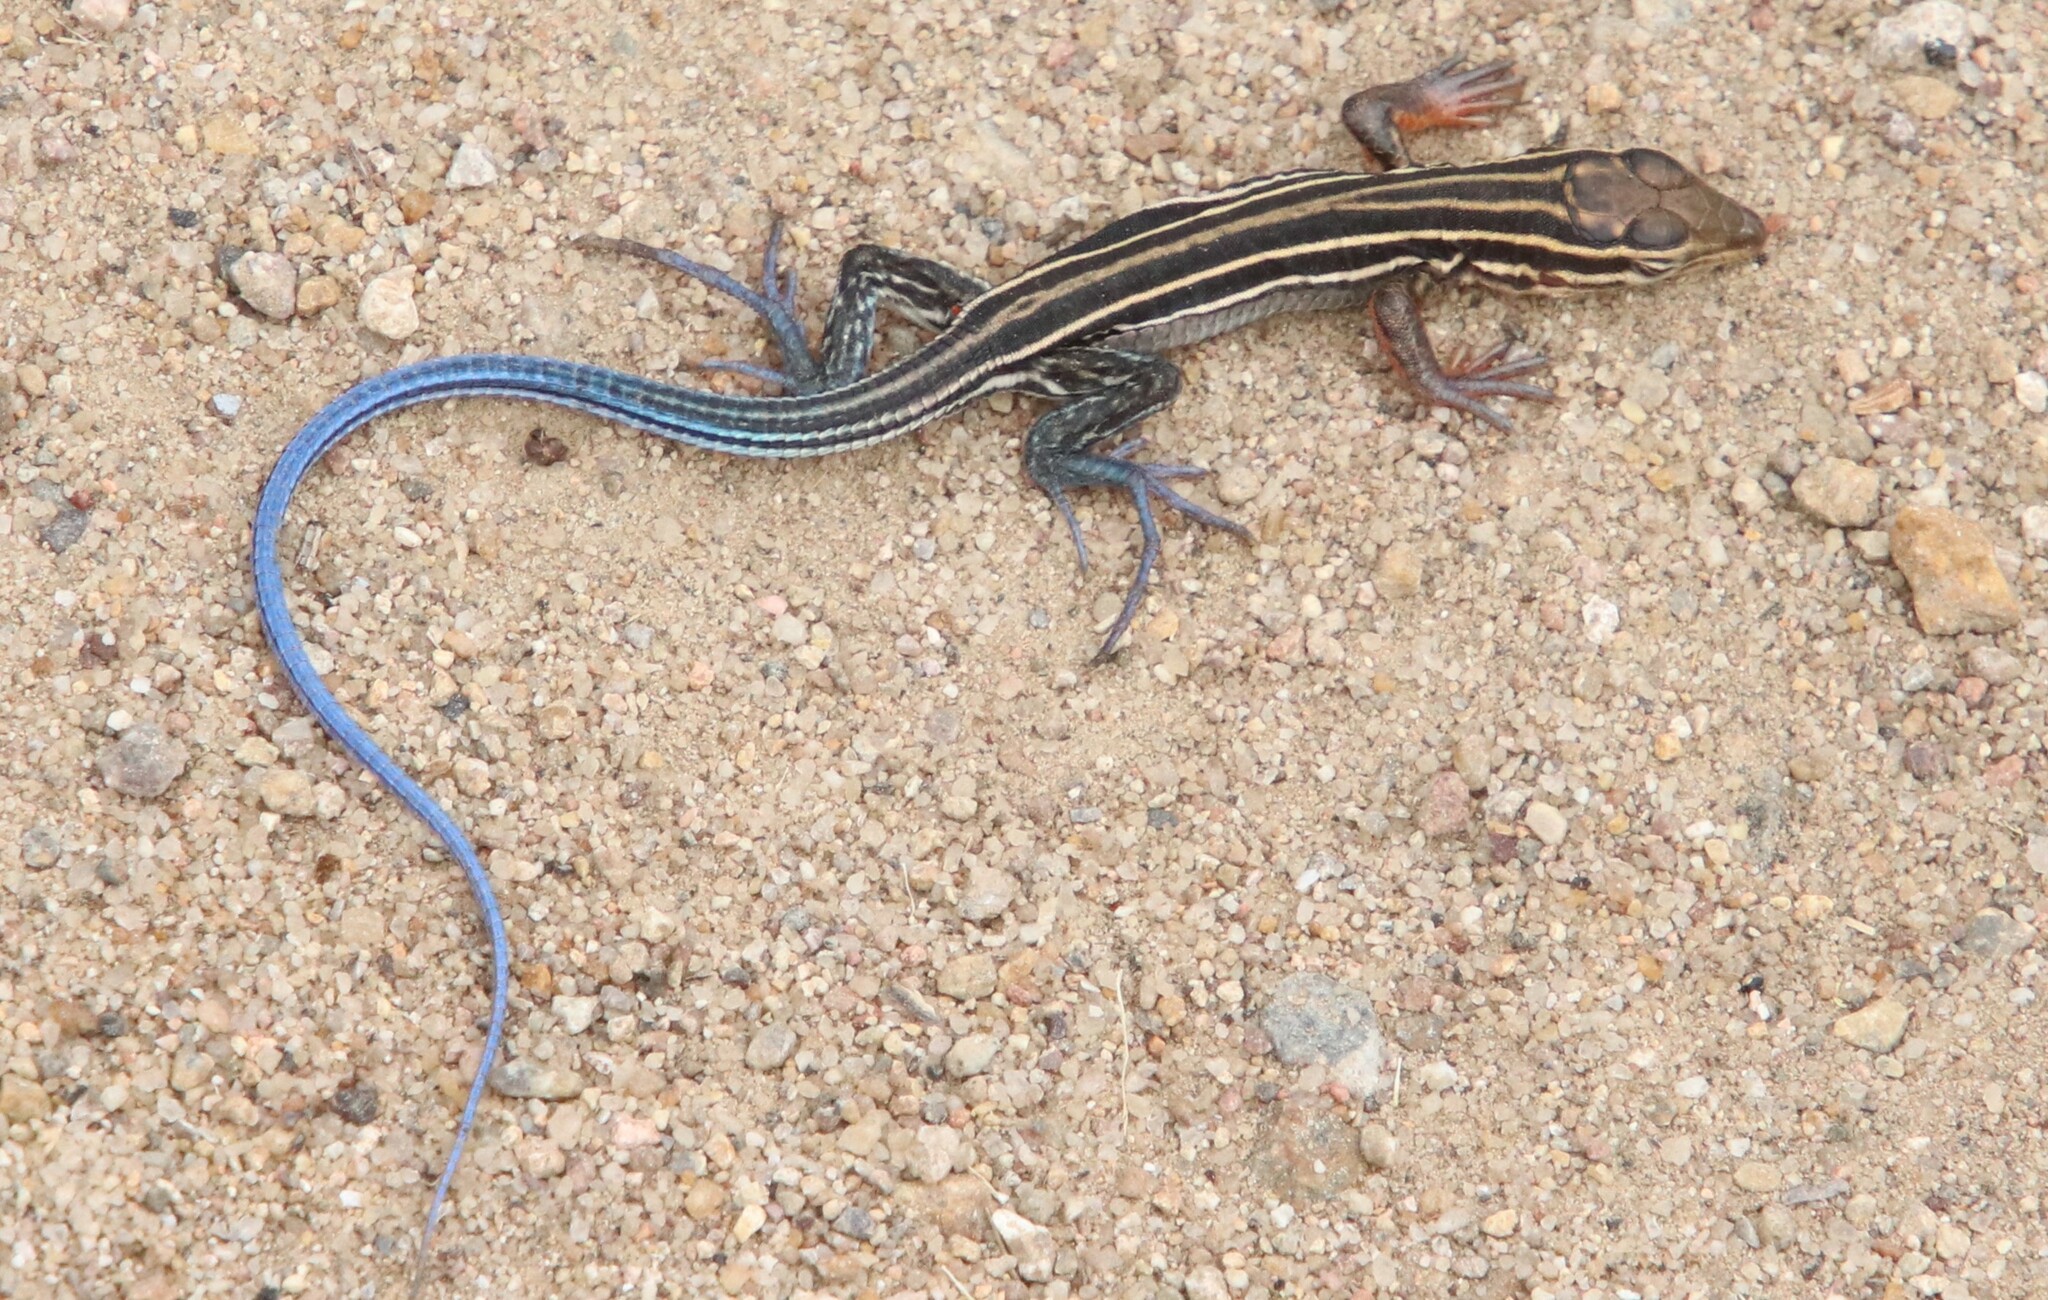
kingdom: Animalia
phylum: Chordata
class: Squamata
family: Teiidae
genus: Aspidoscelis
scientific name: Aspidoscelis hyperythrus
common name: Orange-throated race-runner
